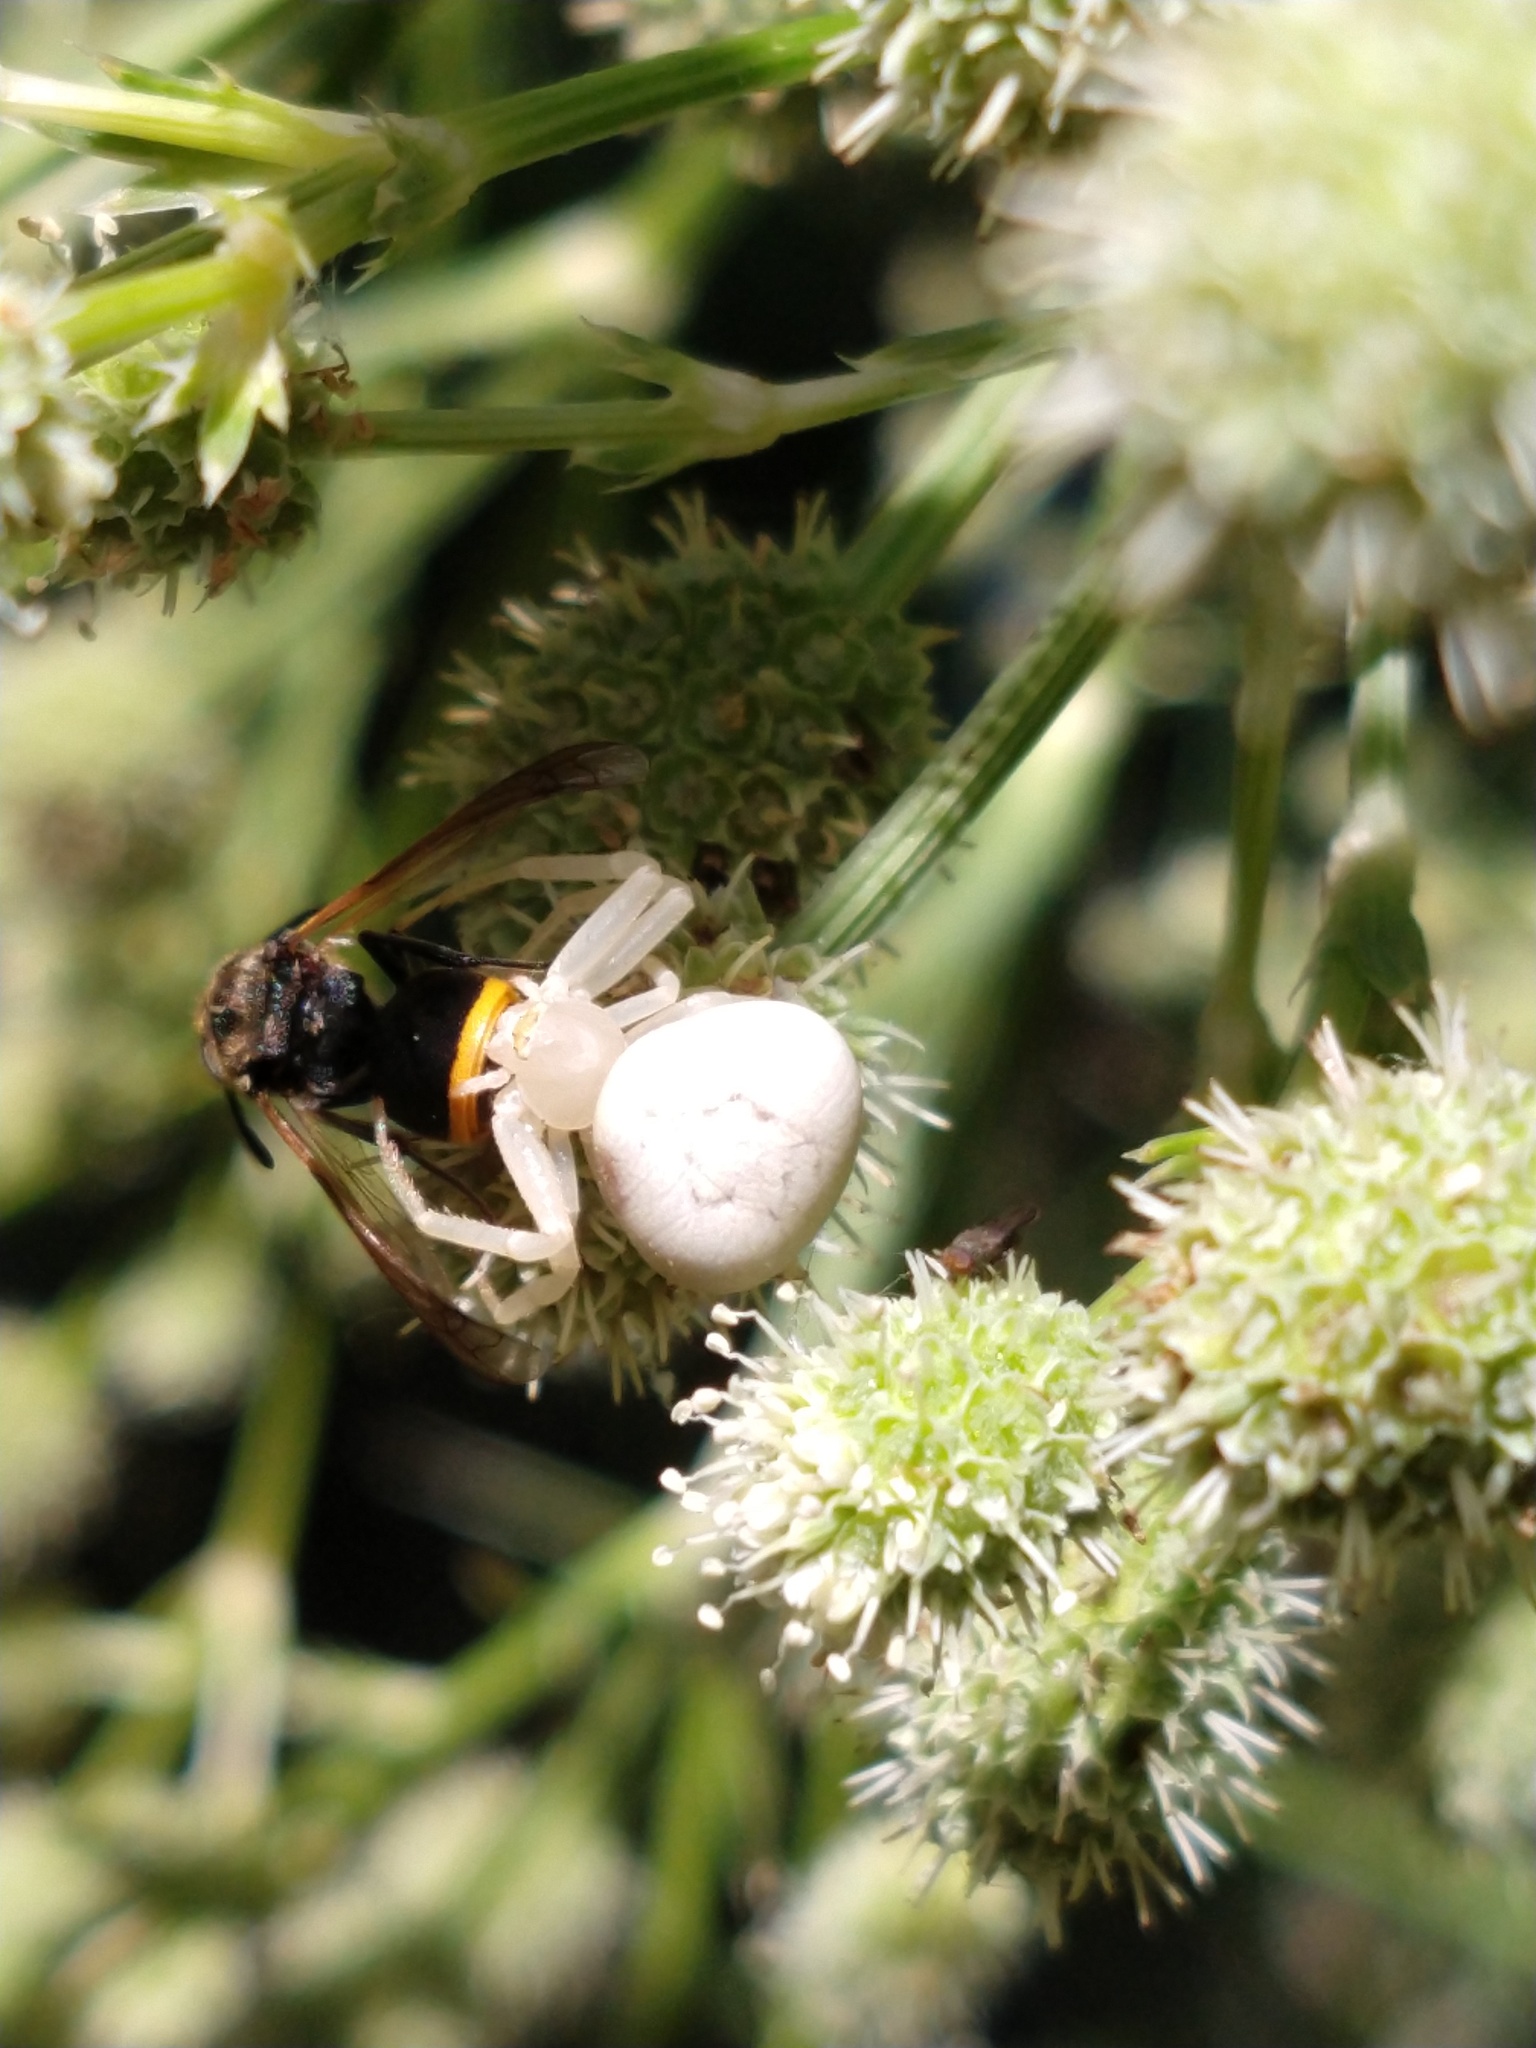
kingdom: Animalia
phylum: Arthropoda
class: Arachnida
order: Araneae
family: Thomisidae
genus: Misumenops
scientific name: Misumenops
